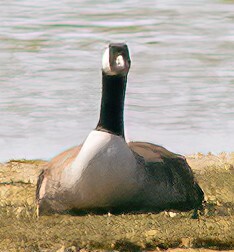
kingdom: Animalia
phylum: Chordata
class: Aves
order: Anseriformes
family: Anatidae
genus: Branta
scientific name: Branta canadensis
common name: Canada goose
